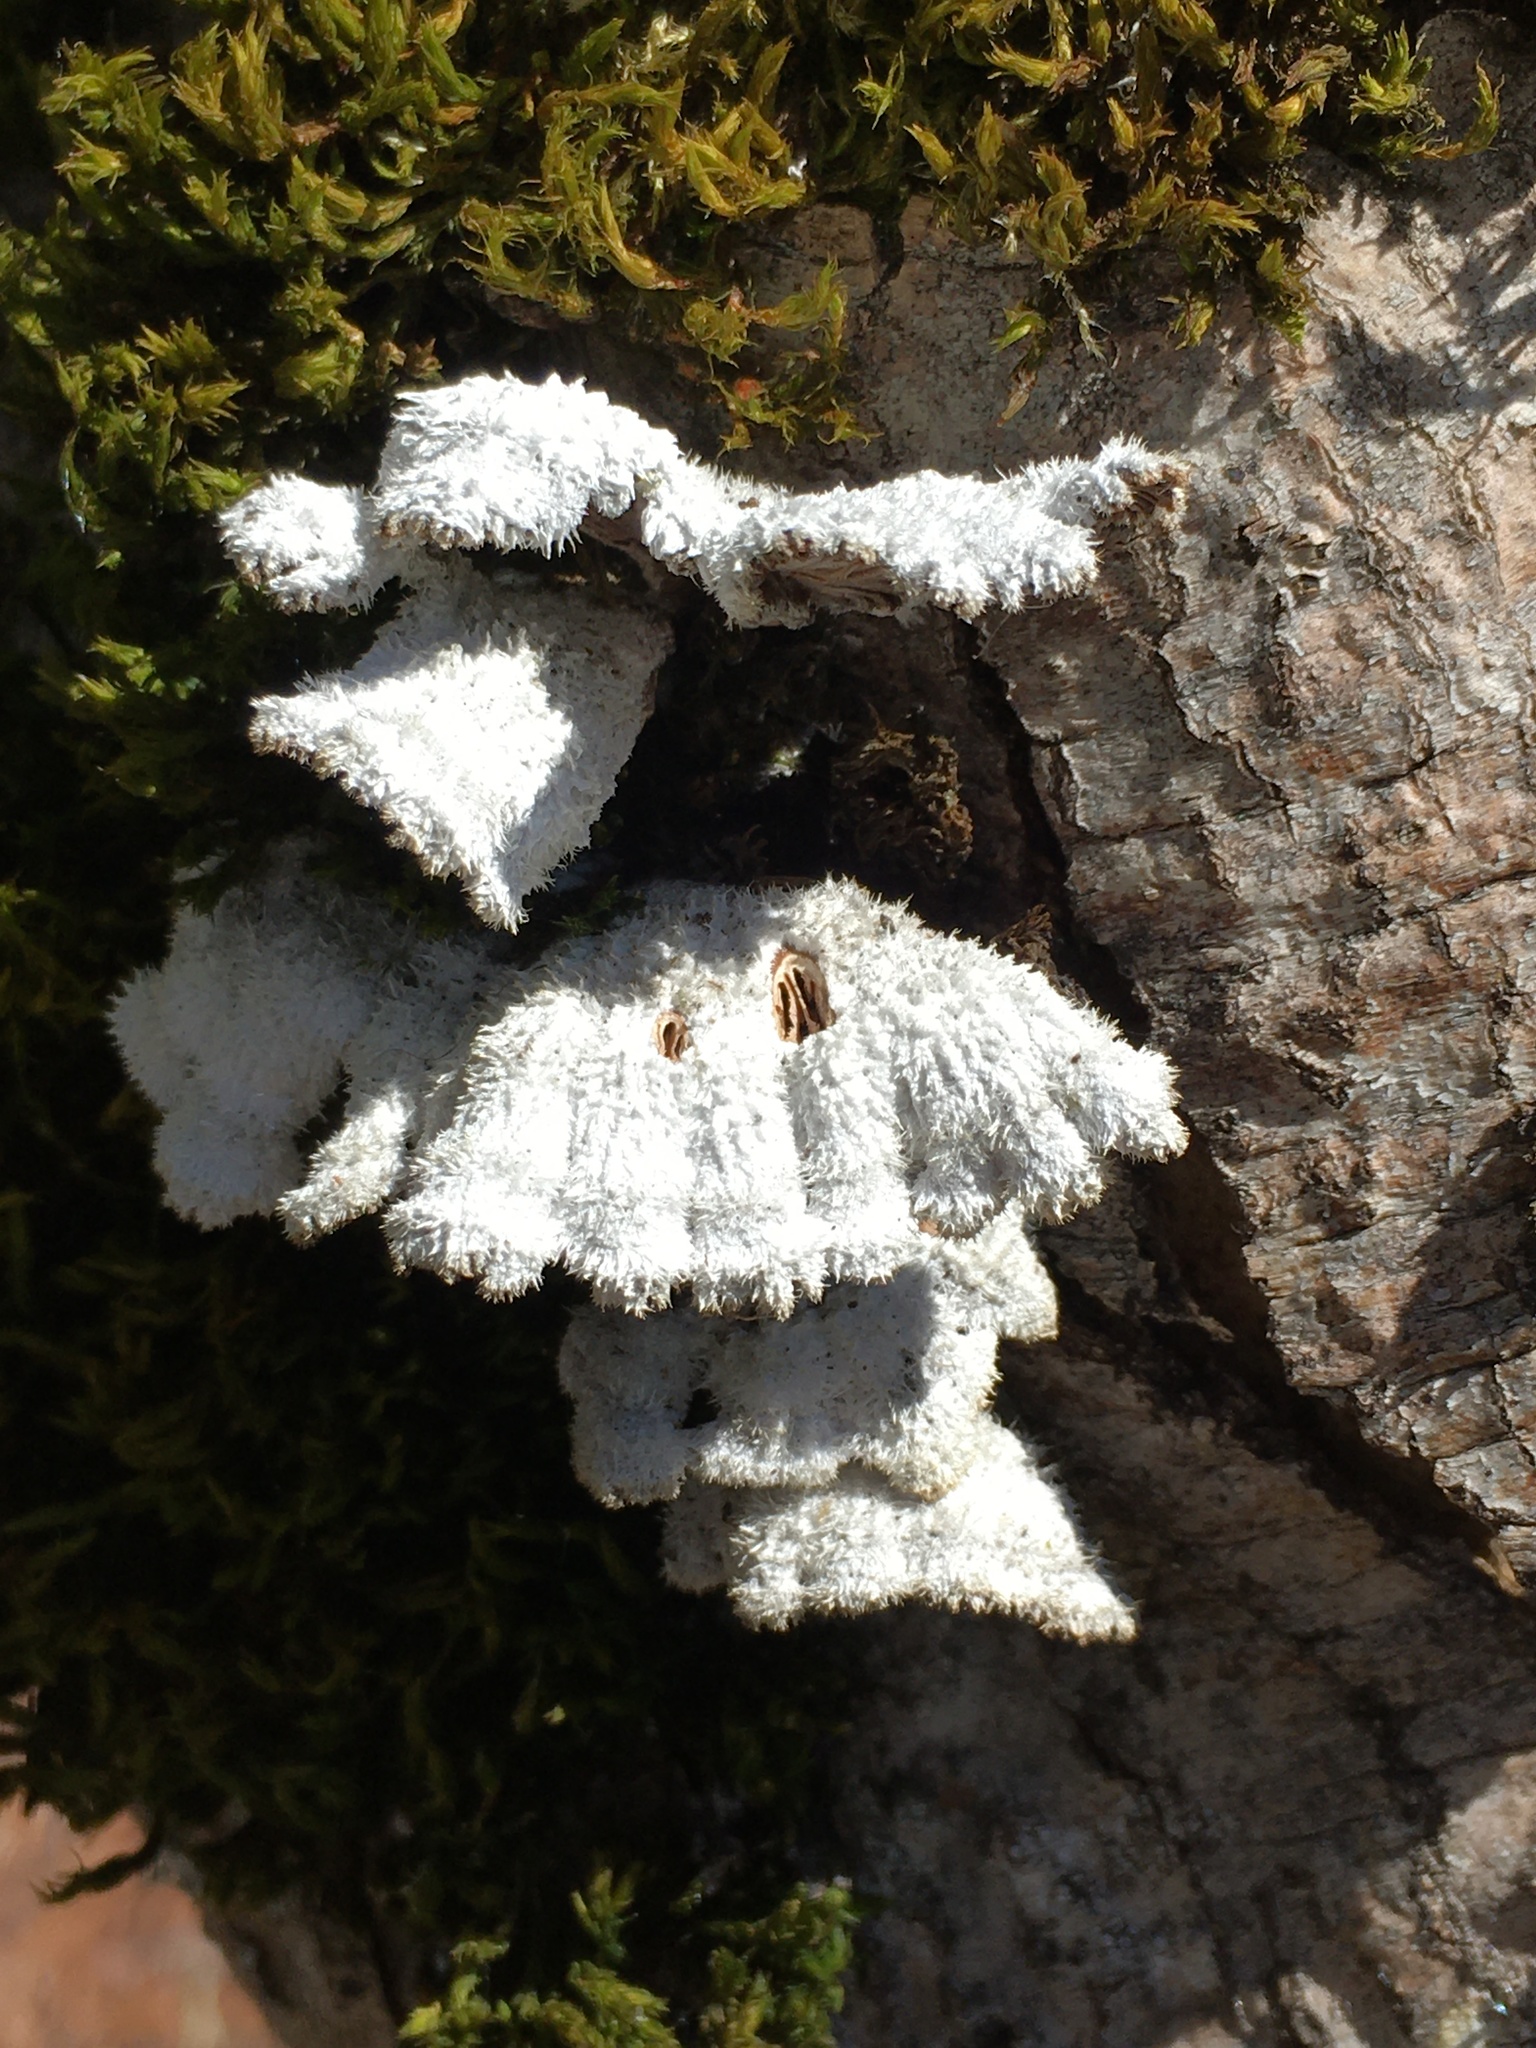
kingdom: Fungi
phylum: Basidiomycota
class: Agaricomycetes
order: Agaricales
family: Schizophyllaceae
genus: Schizophyllum
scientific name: Schizophyllum commune
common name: Common porecrust
